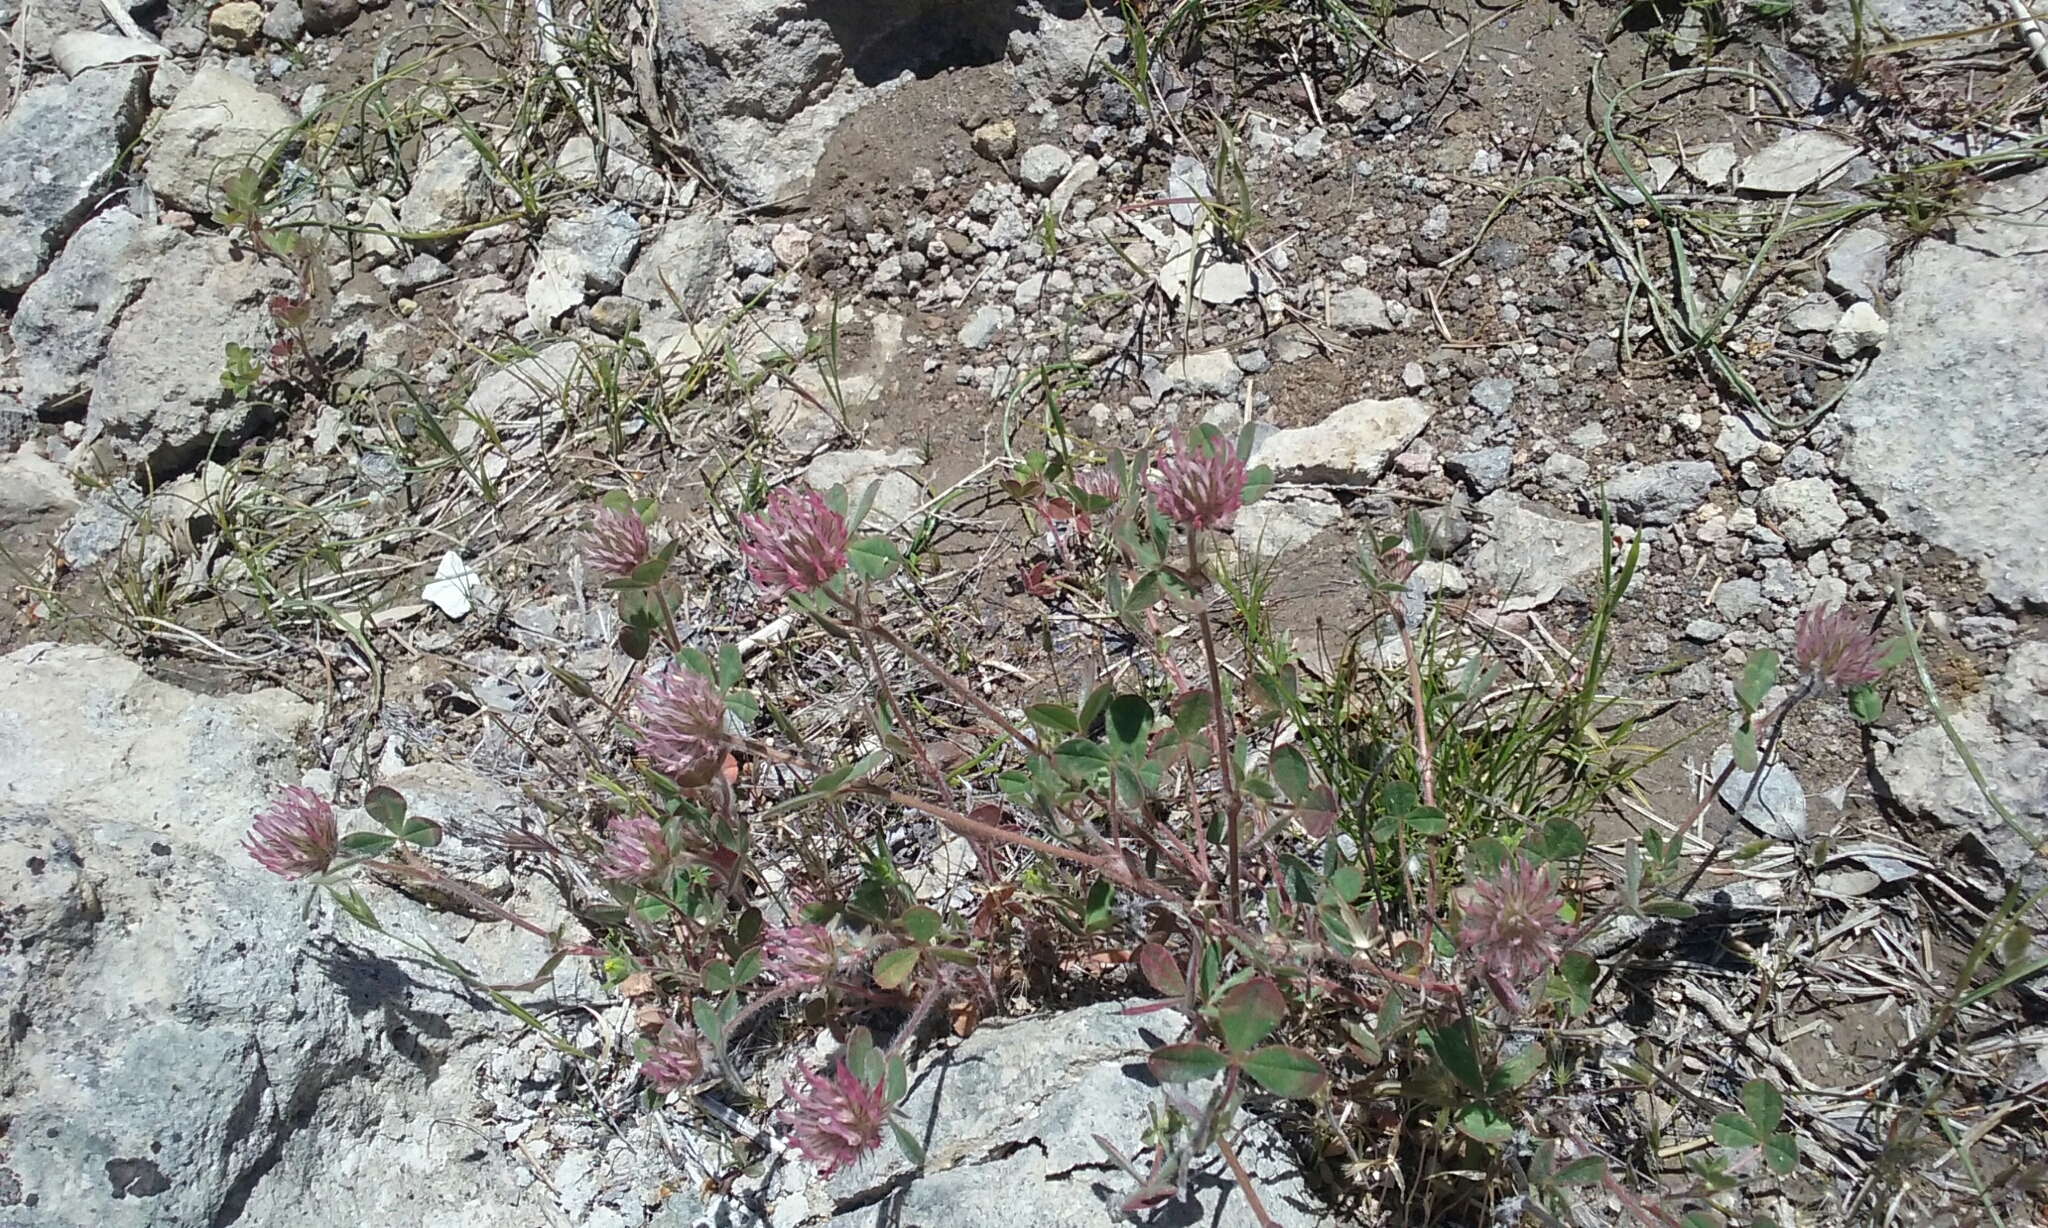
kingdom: Plantae
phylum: Tracheophyta
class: Magnoliopsida
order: Fabales
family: Fabaceae
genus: Trifolium
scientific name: Trifolium hirtum
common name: Rose clover
